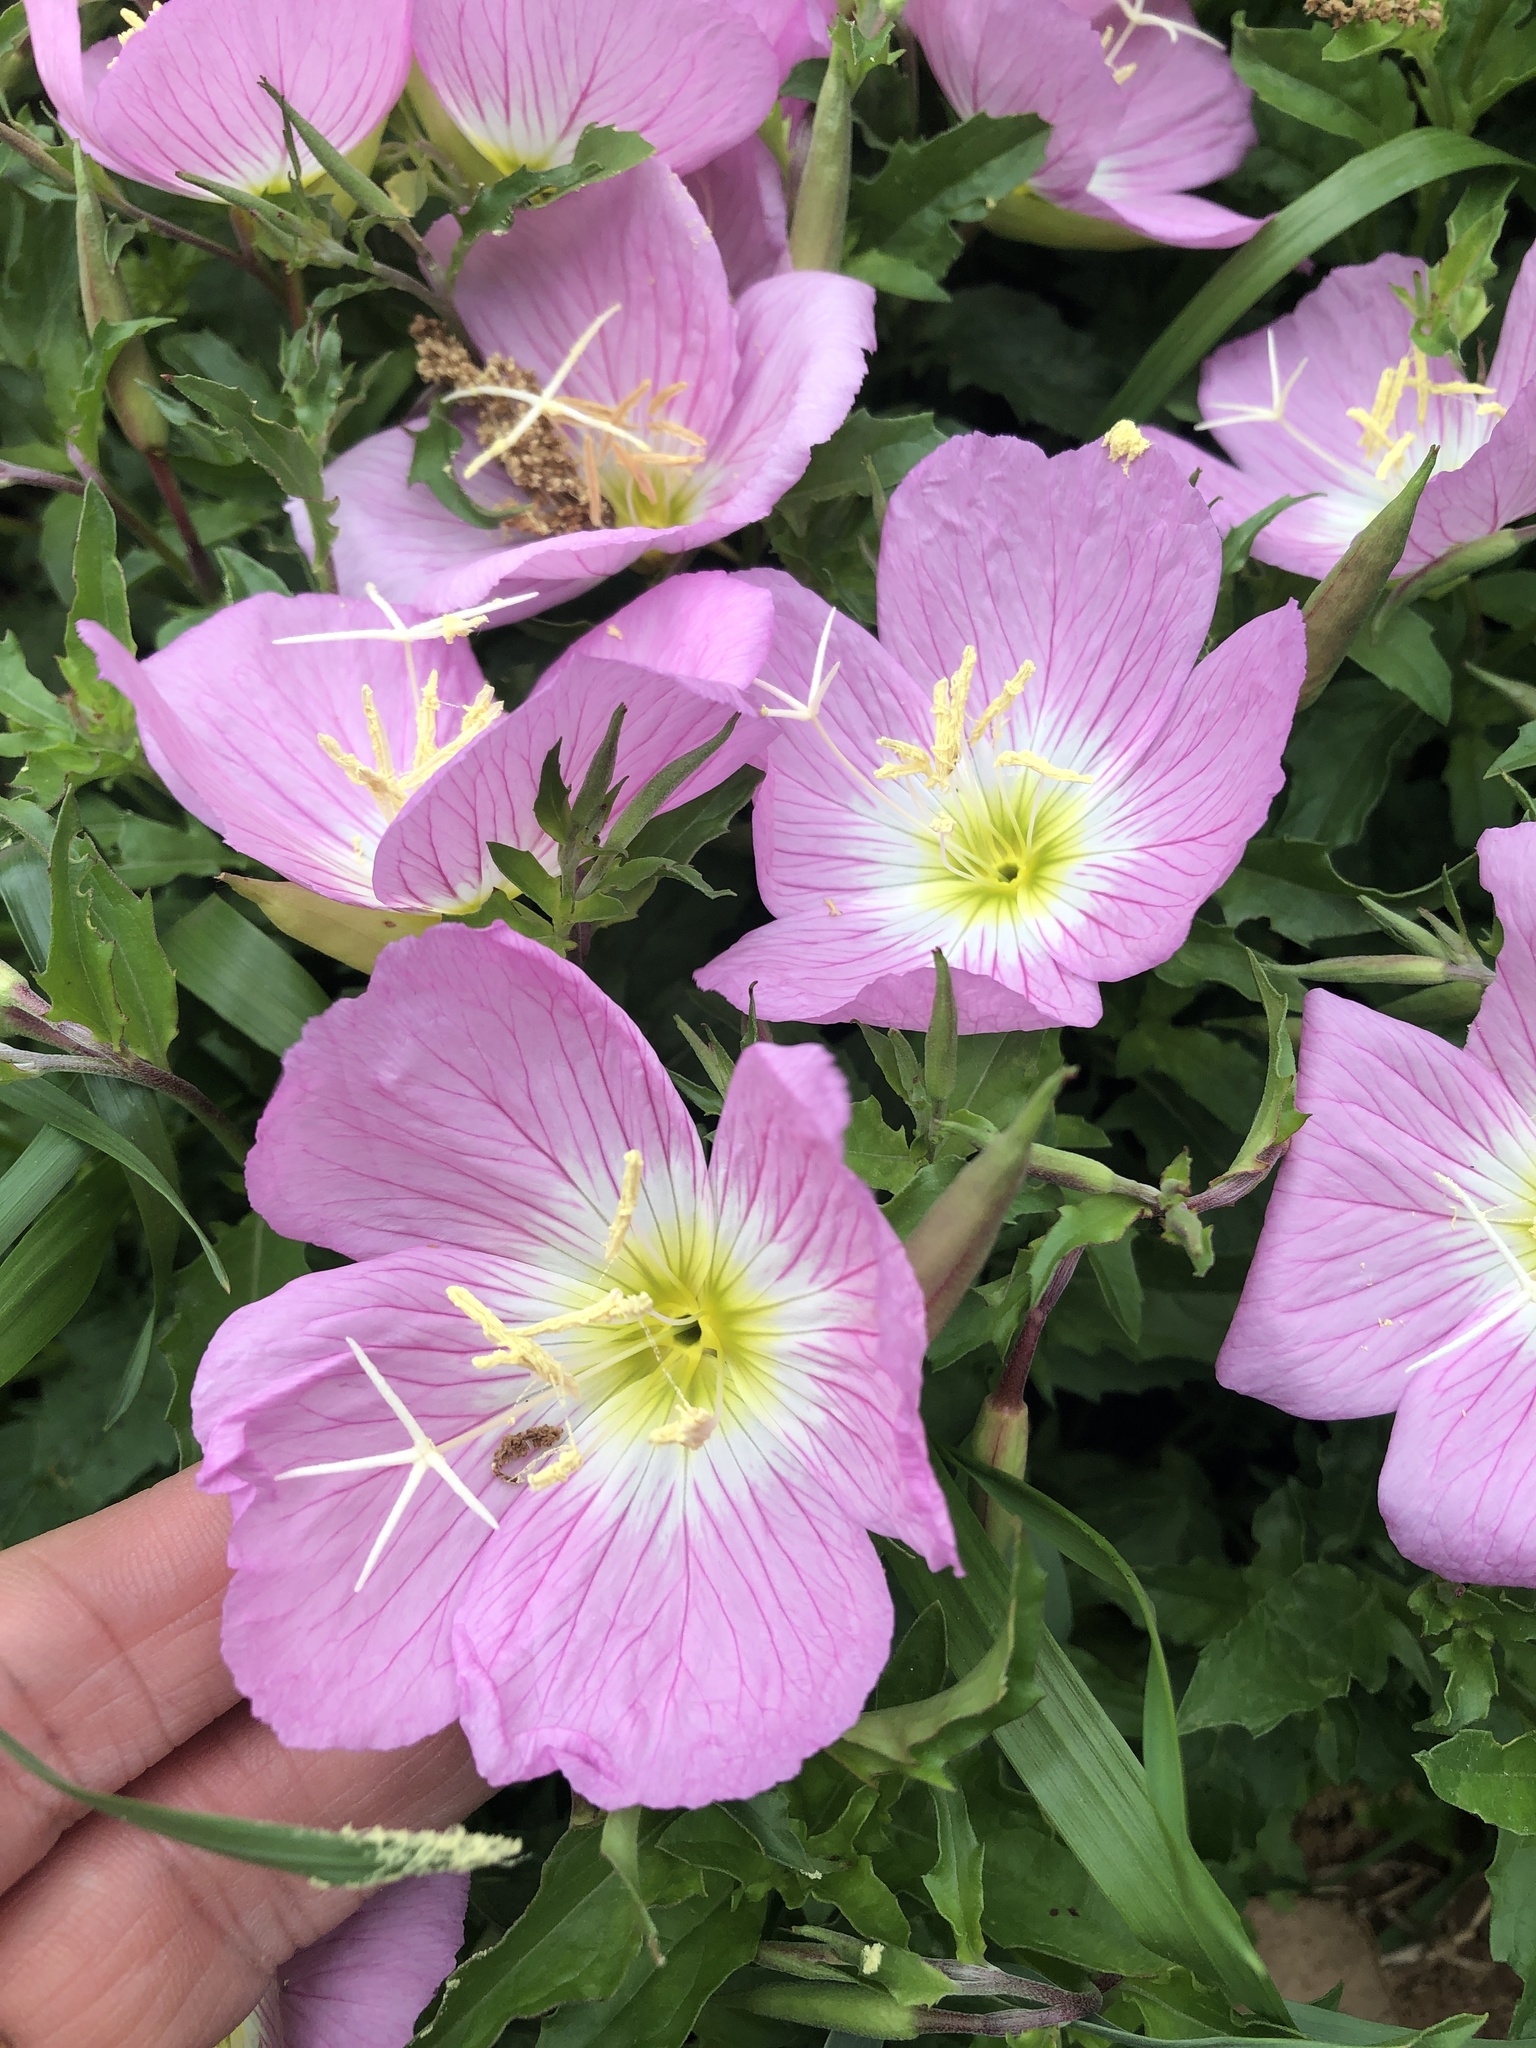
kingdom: Plantae
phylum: Tracheophyta
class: Magnoliopsida
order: Myrtales
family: Onagraceae
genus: Oenothera
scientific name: Oenothera speciosa
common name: White evening-primrose
